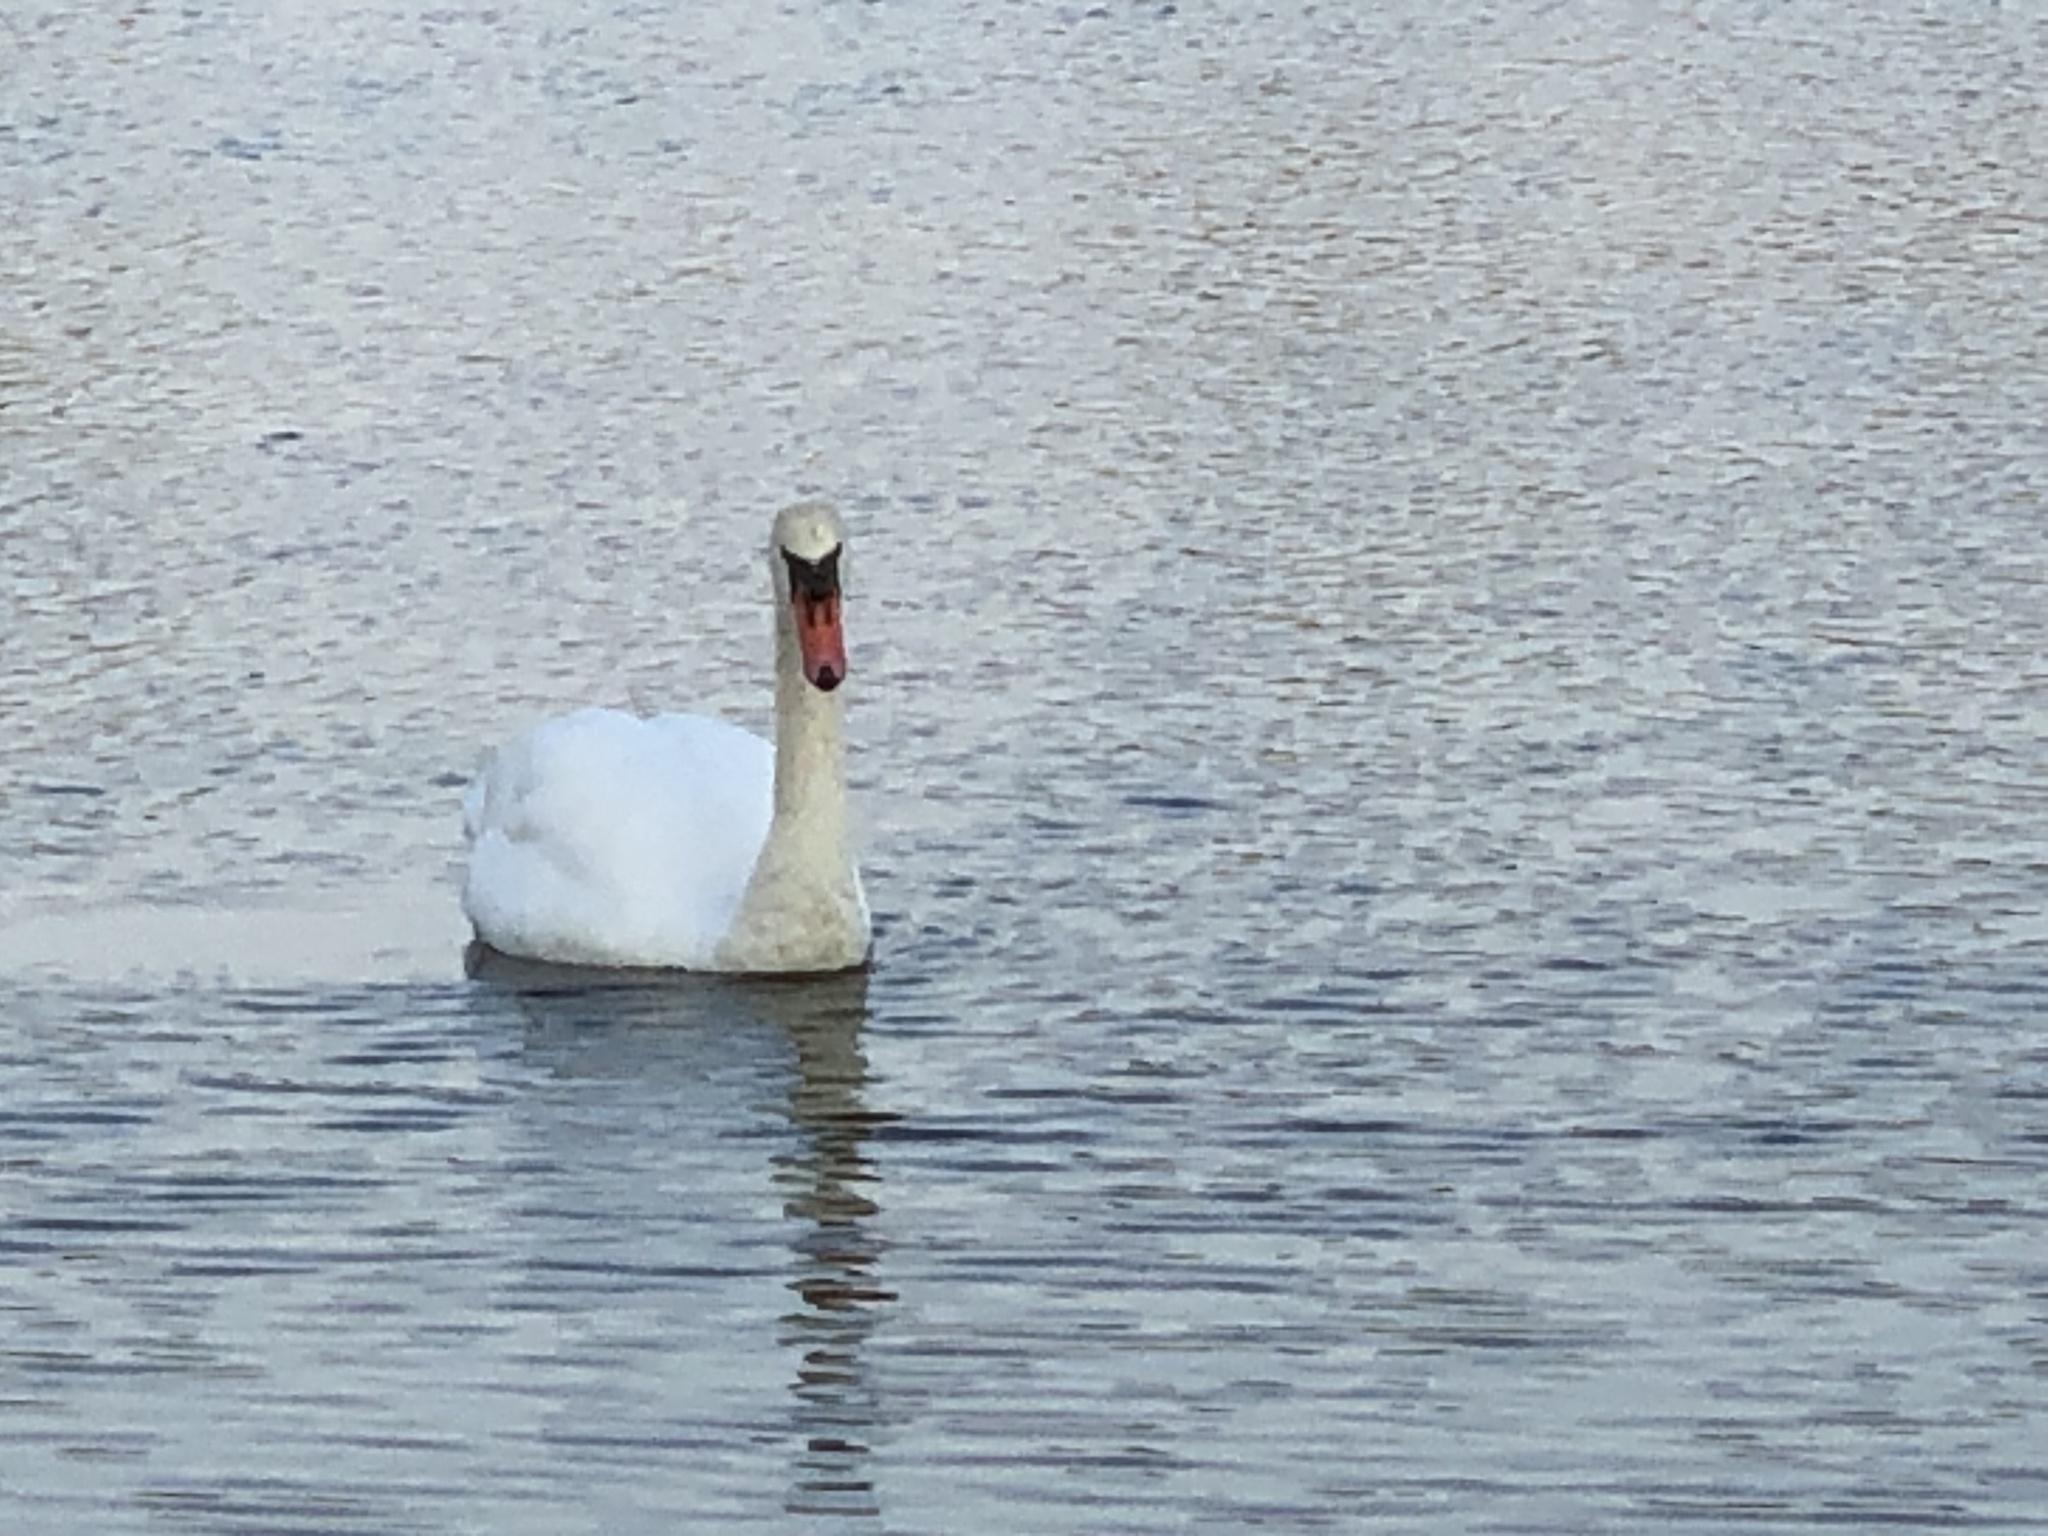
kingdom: Animalia
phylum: Chordata
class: Aves
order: Anseriformes
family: Anatidae
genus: Cygnus
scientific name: Cygnus olor
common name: Mute swan
